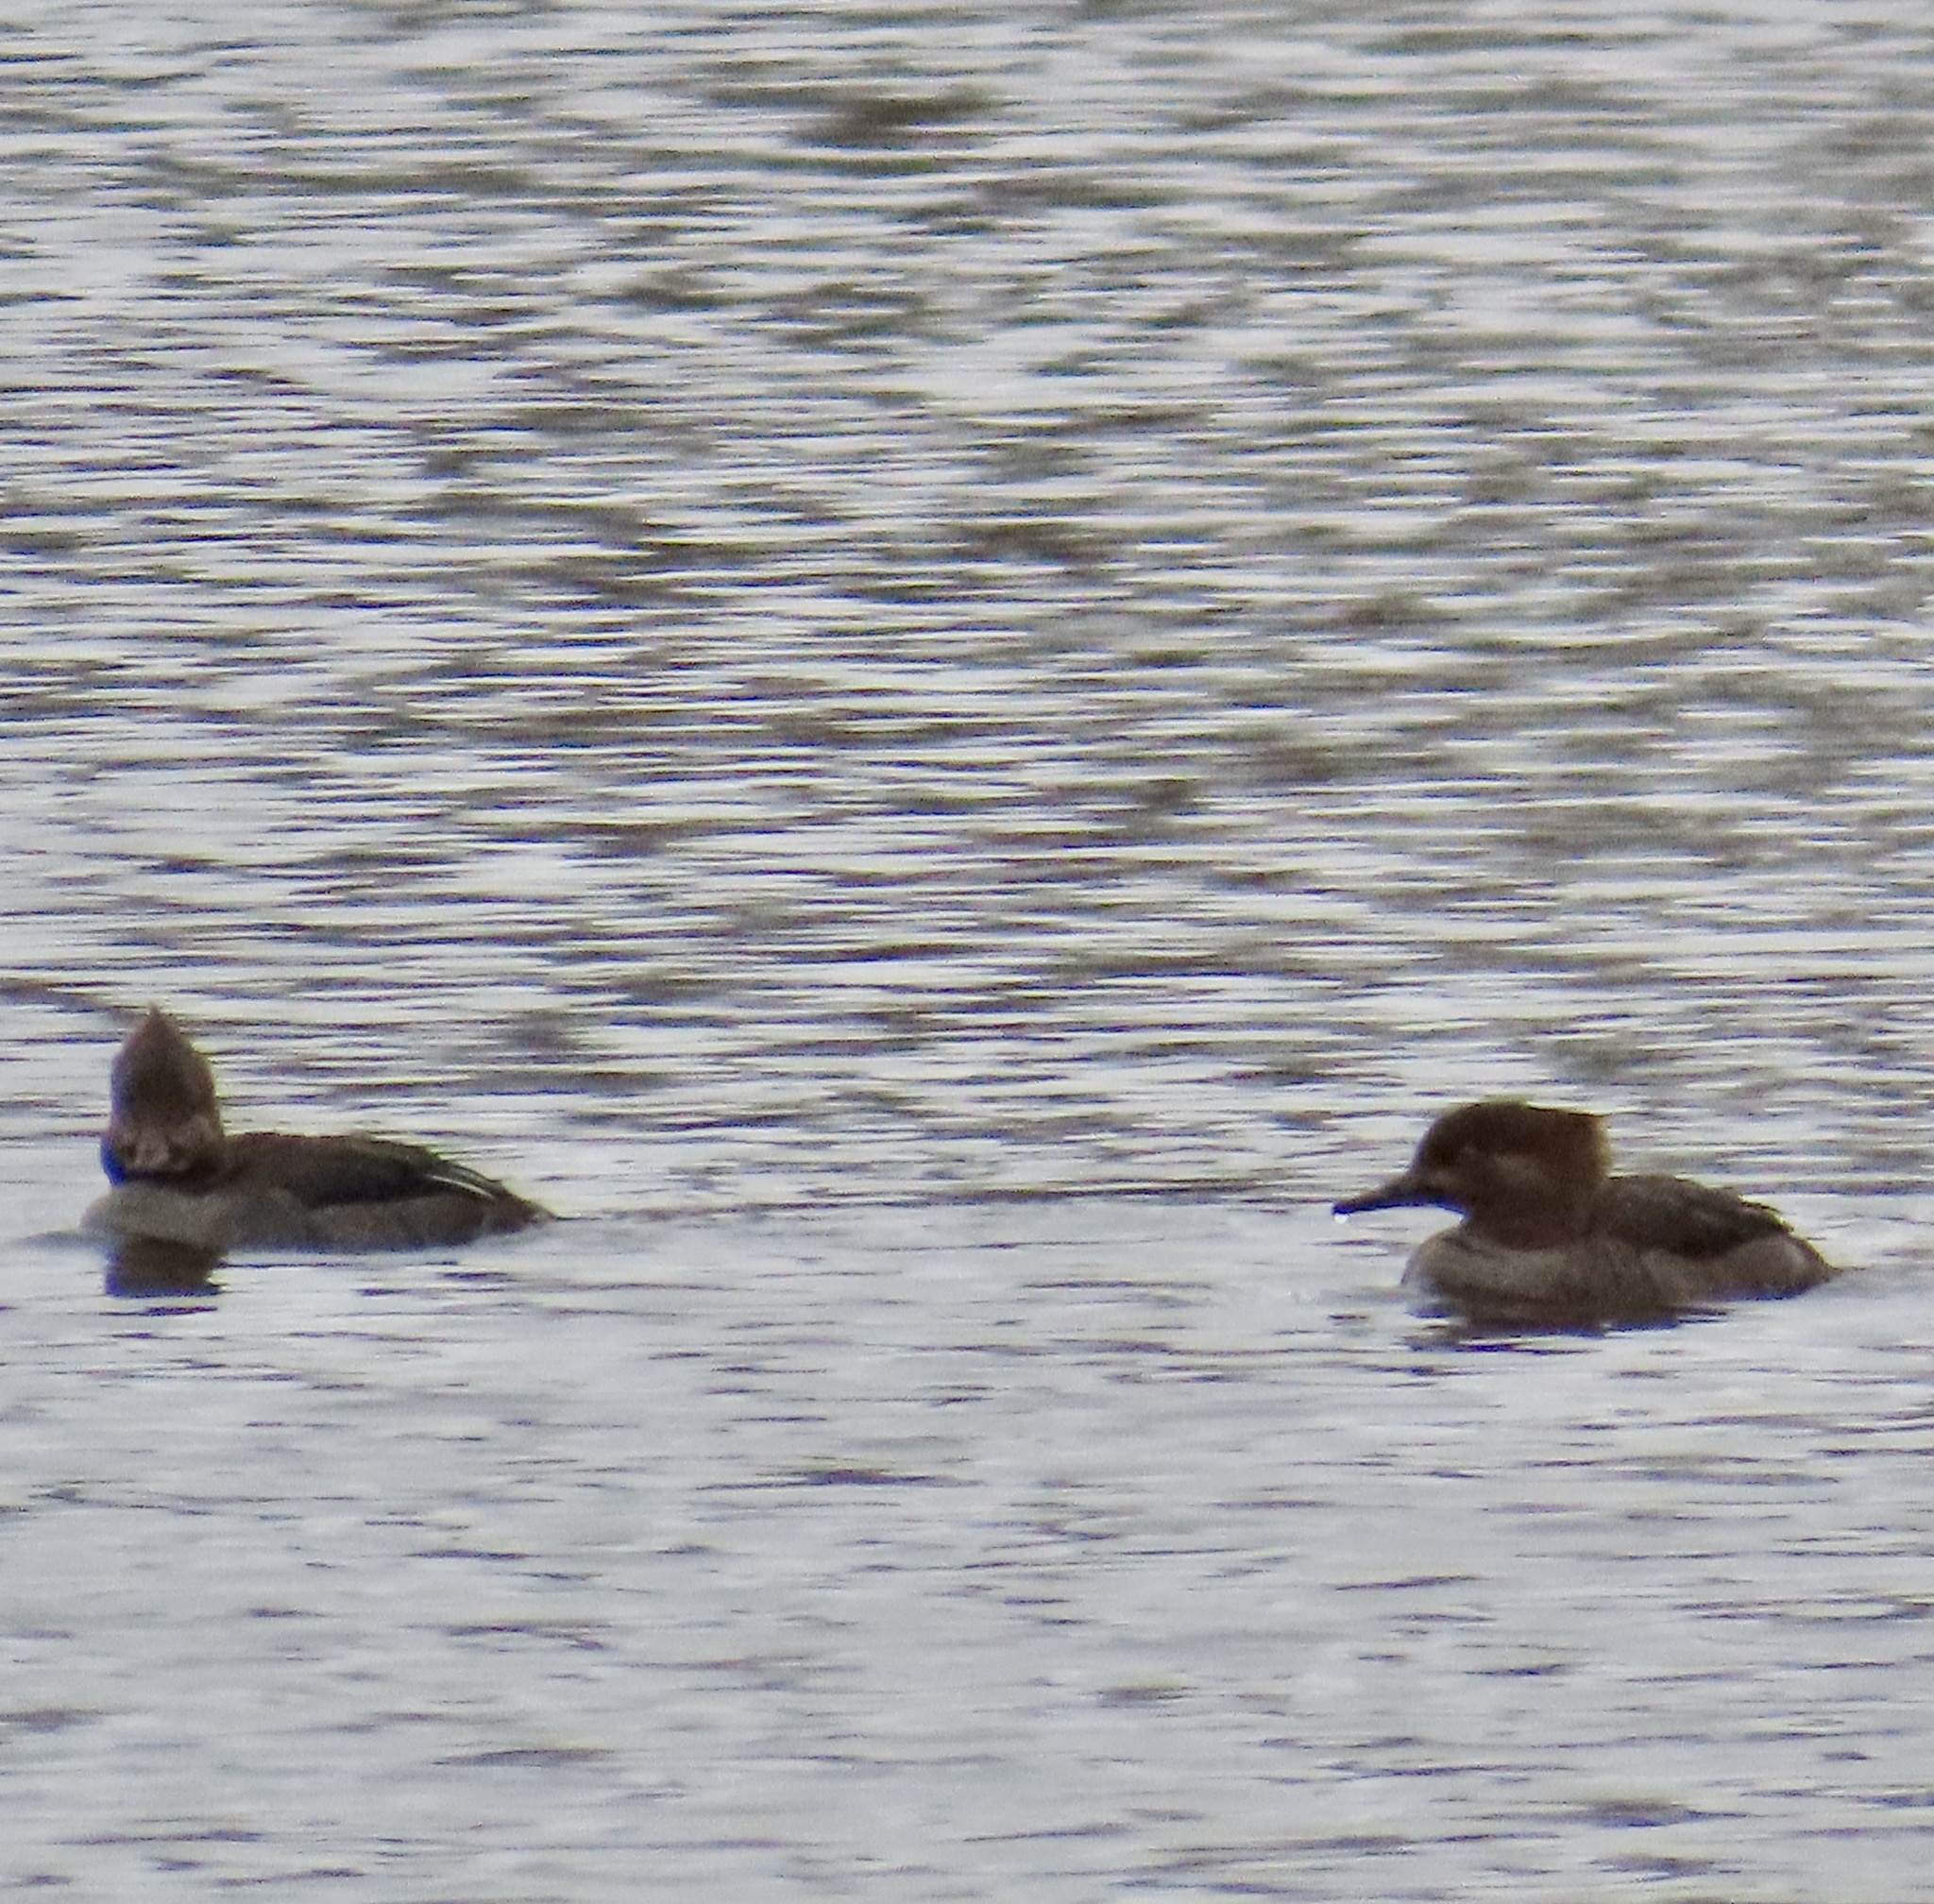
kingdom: Animalia
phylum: Chordata
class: Aves
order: Anseriformes
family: Anatidae
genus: Lophodytes
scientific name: Lophodytes cucullatus
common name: Hooded merganser
